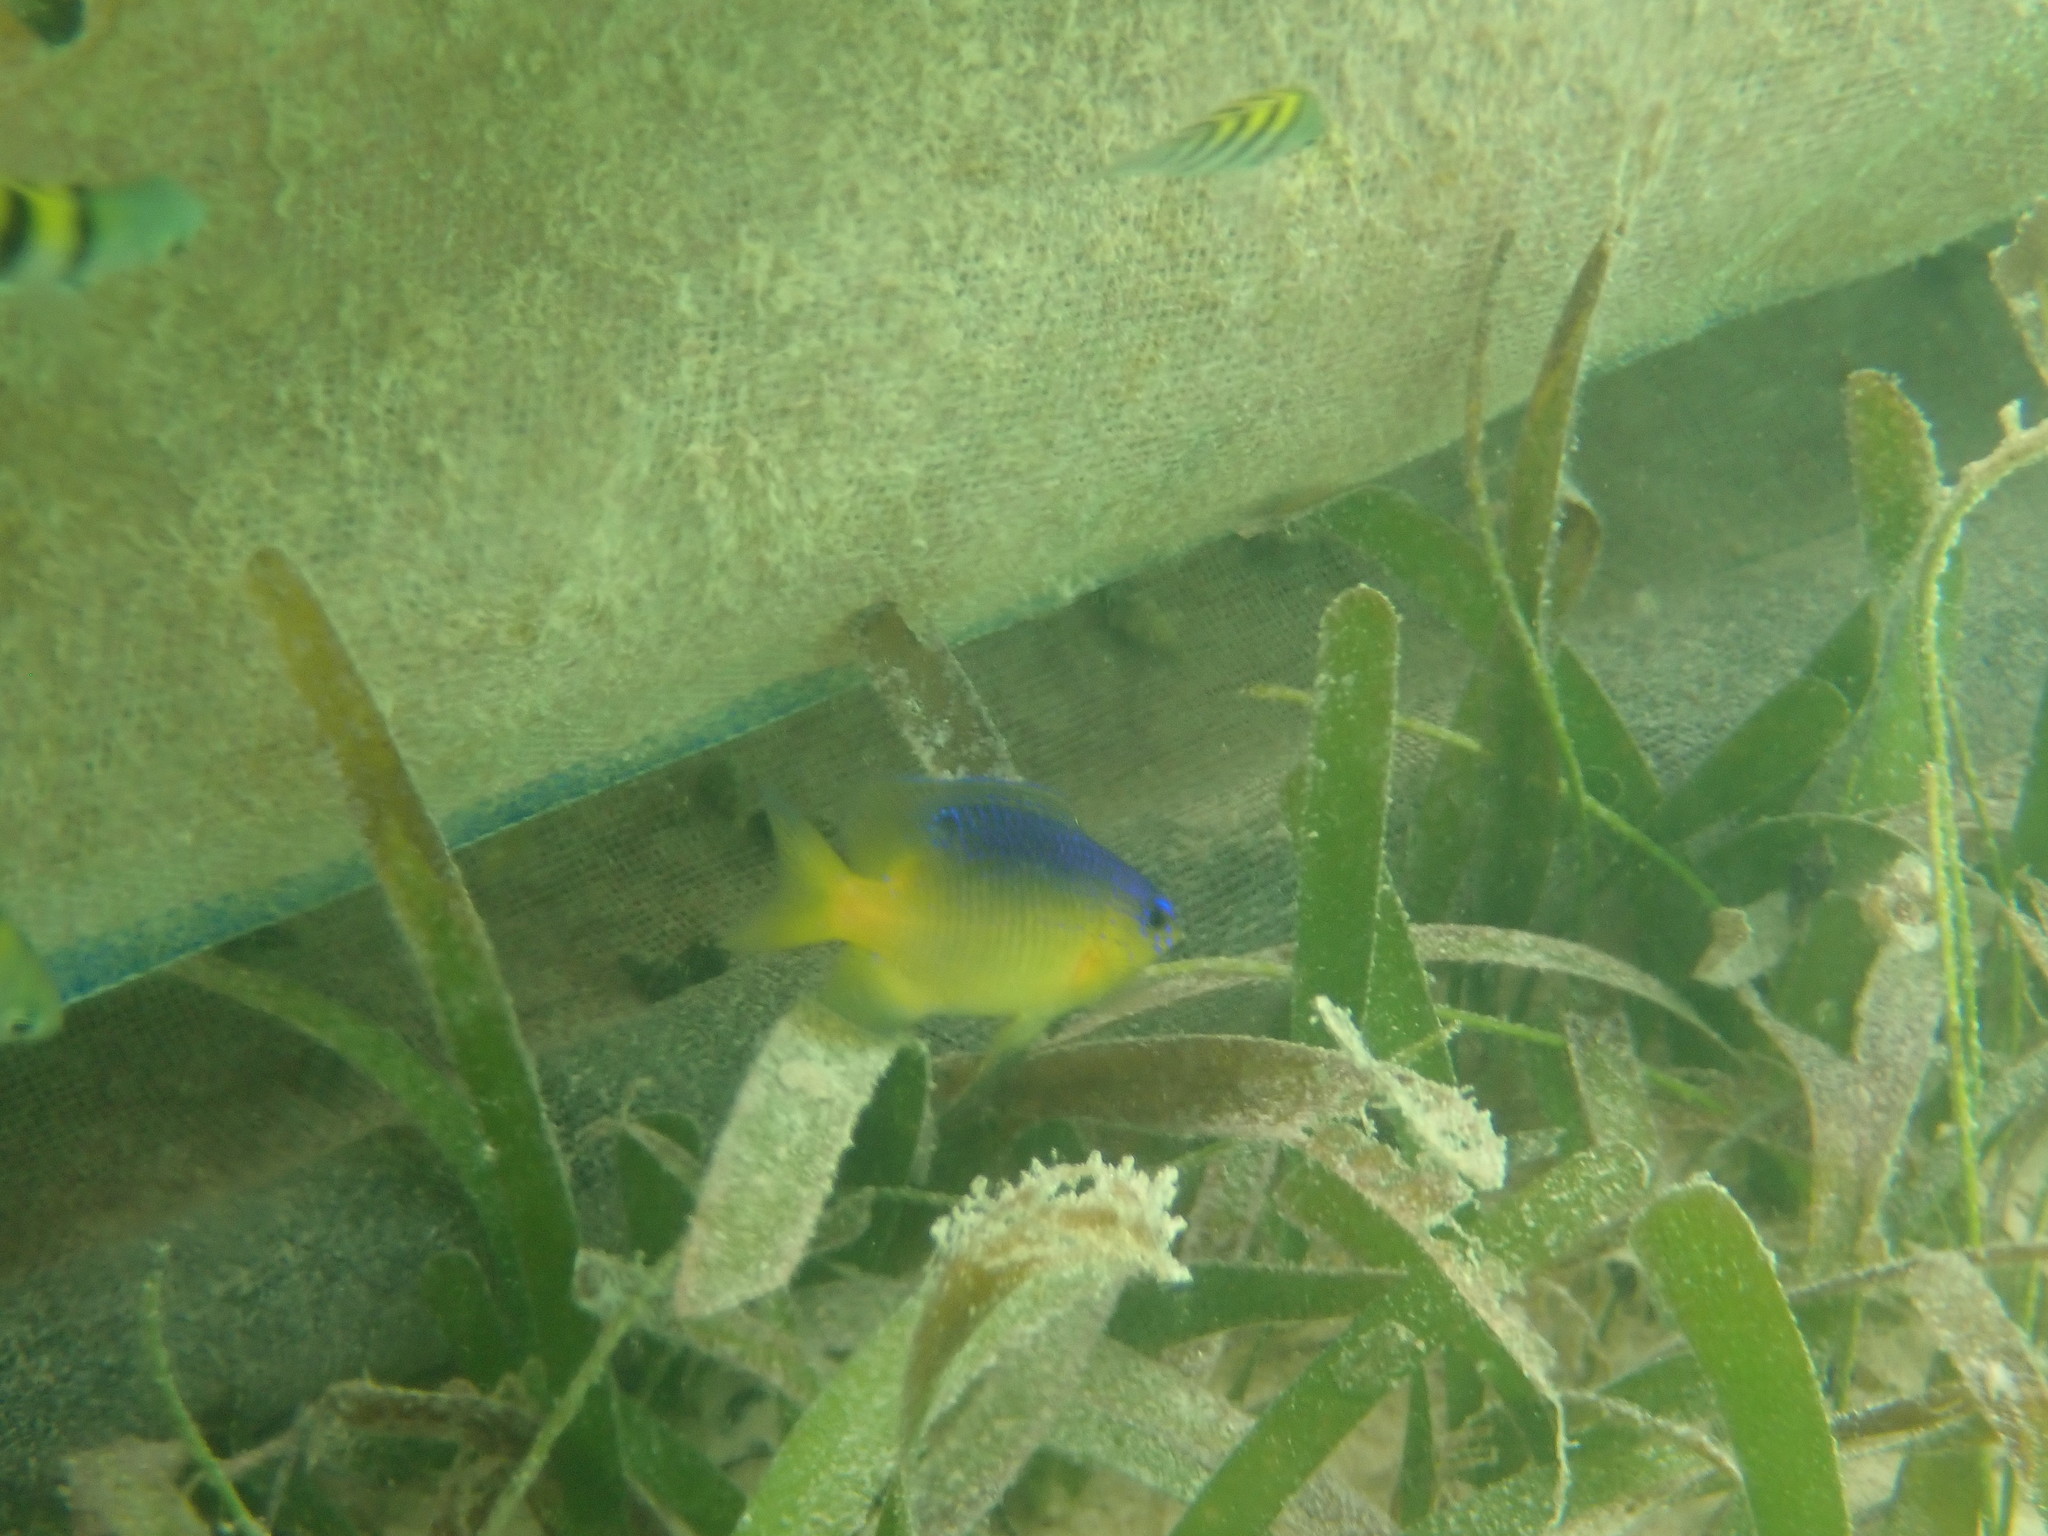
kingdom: Animalia
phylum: Chordata
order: Perciformes
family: Pomacentridae
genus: Stegastes
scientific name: Stegastes leucostictus
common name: Beaugregory
